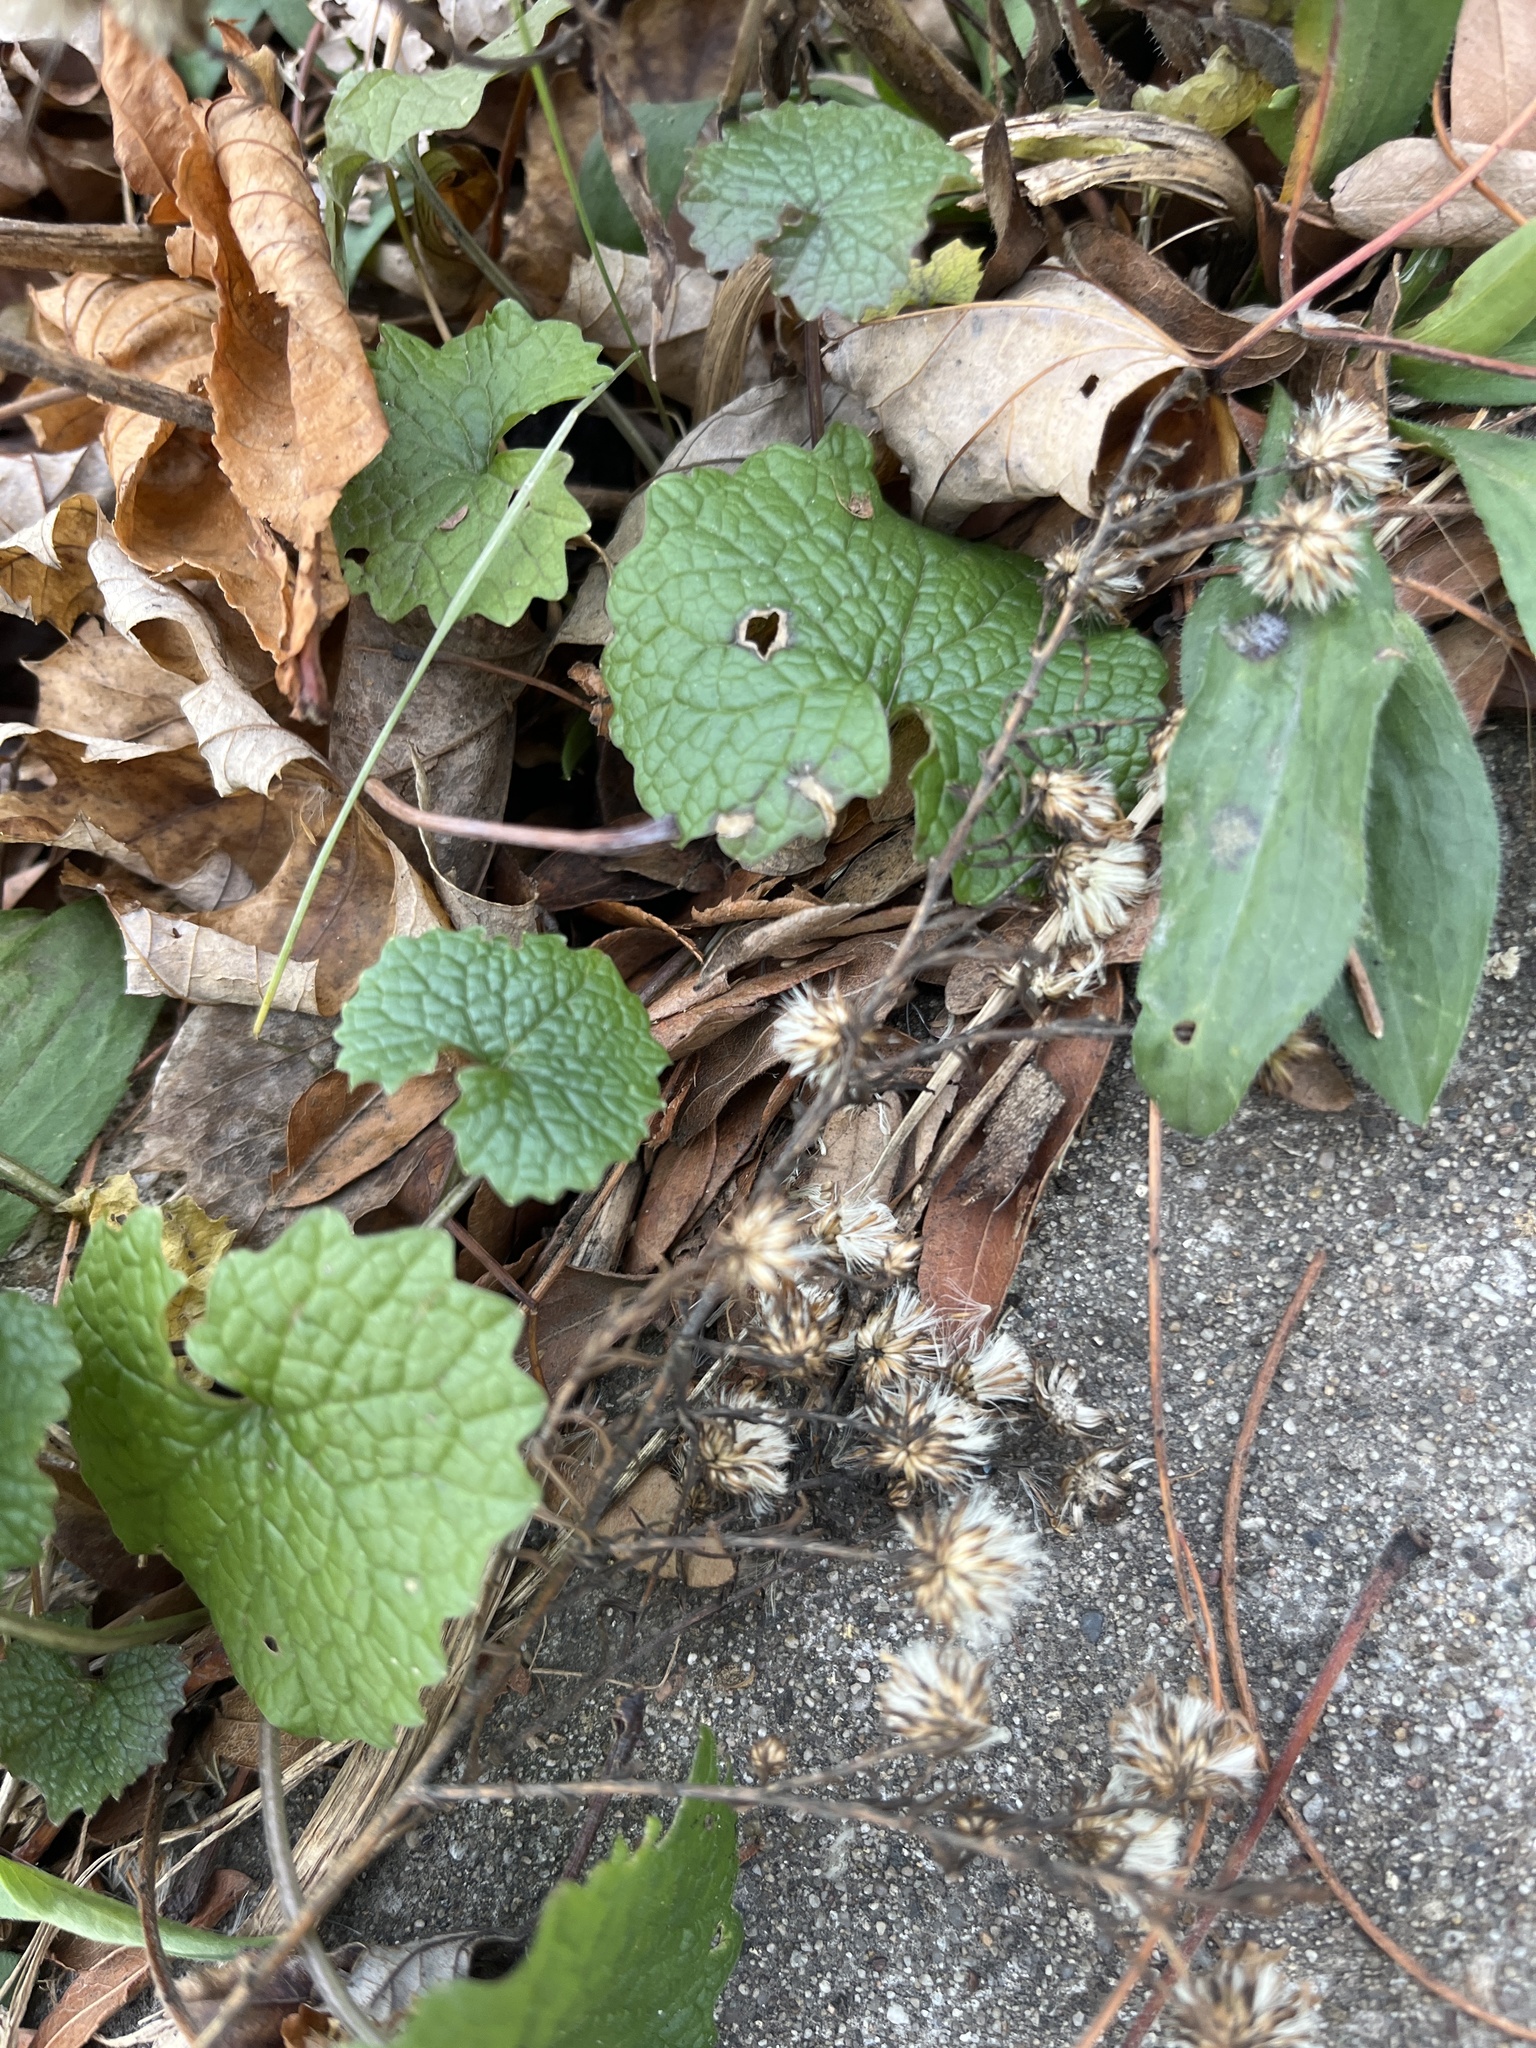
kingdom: Plantae
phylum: Tracheophyta
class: Magnoliopsida
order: Brassicales
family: Brassicaceae
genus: Alliaria
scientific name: Alliaria petiolata
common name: Garlic mustard
